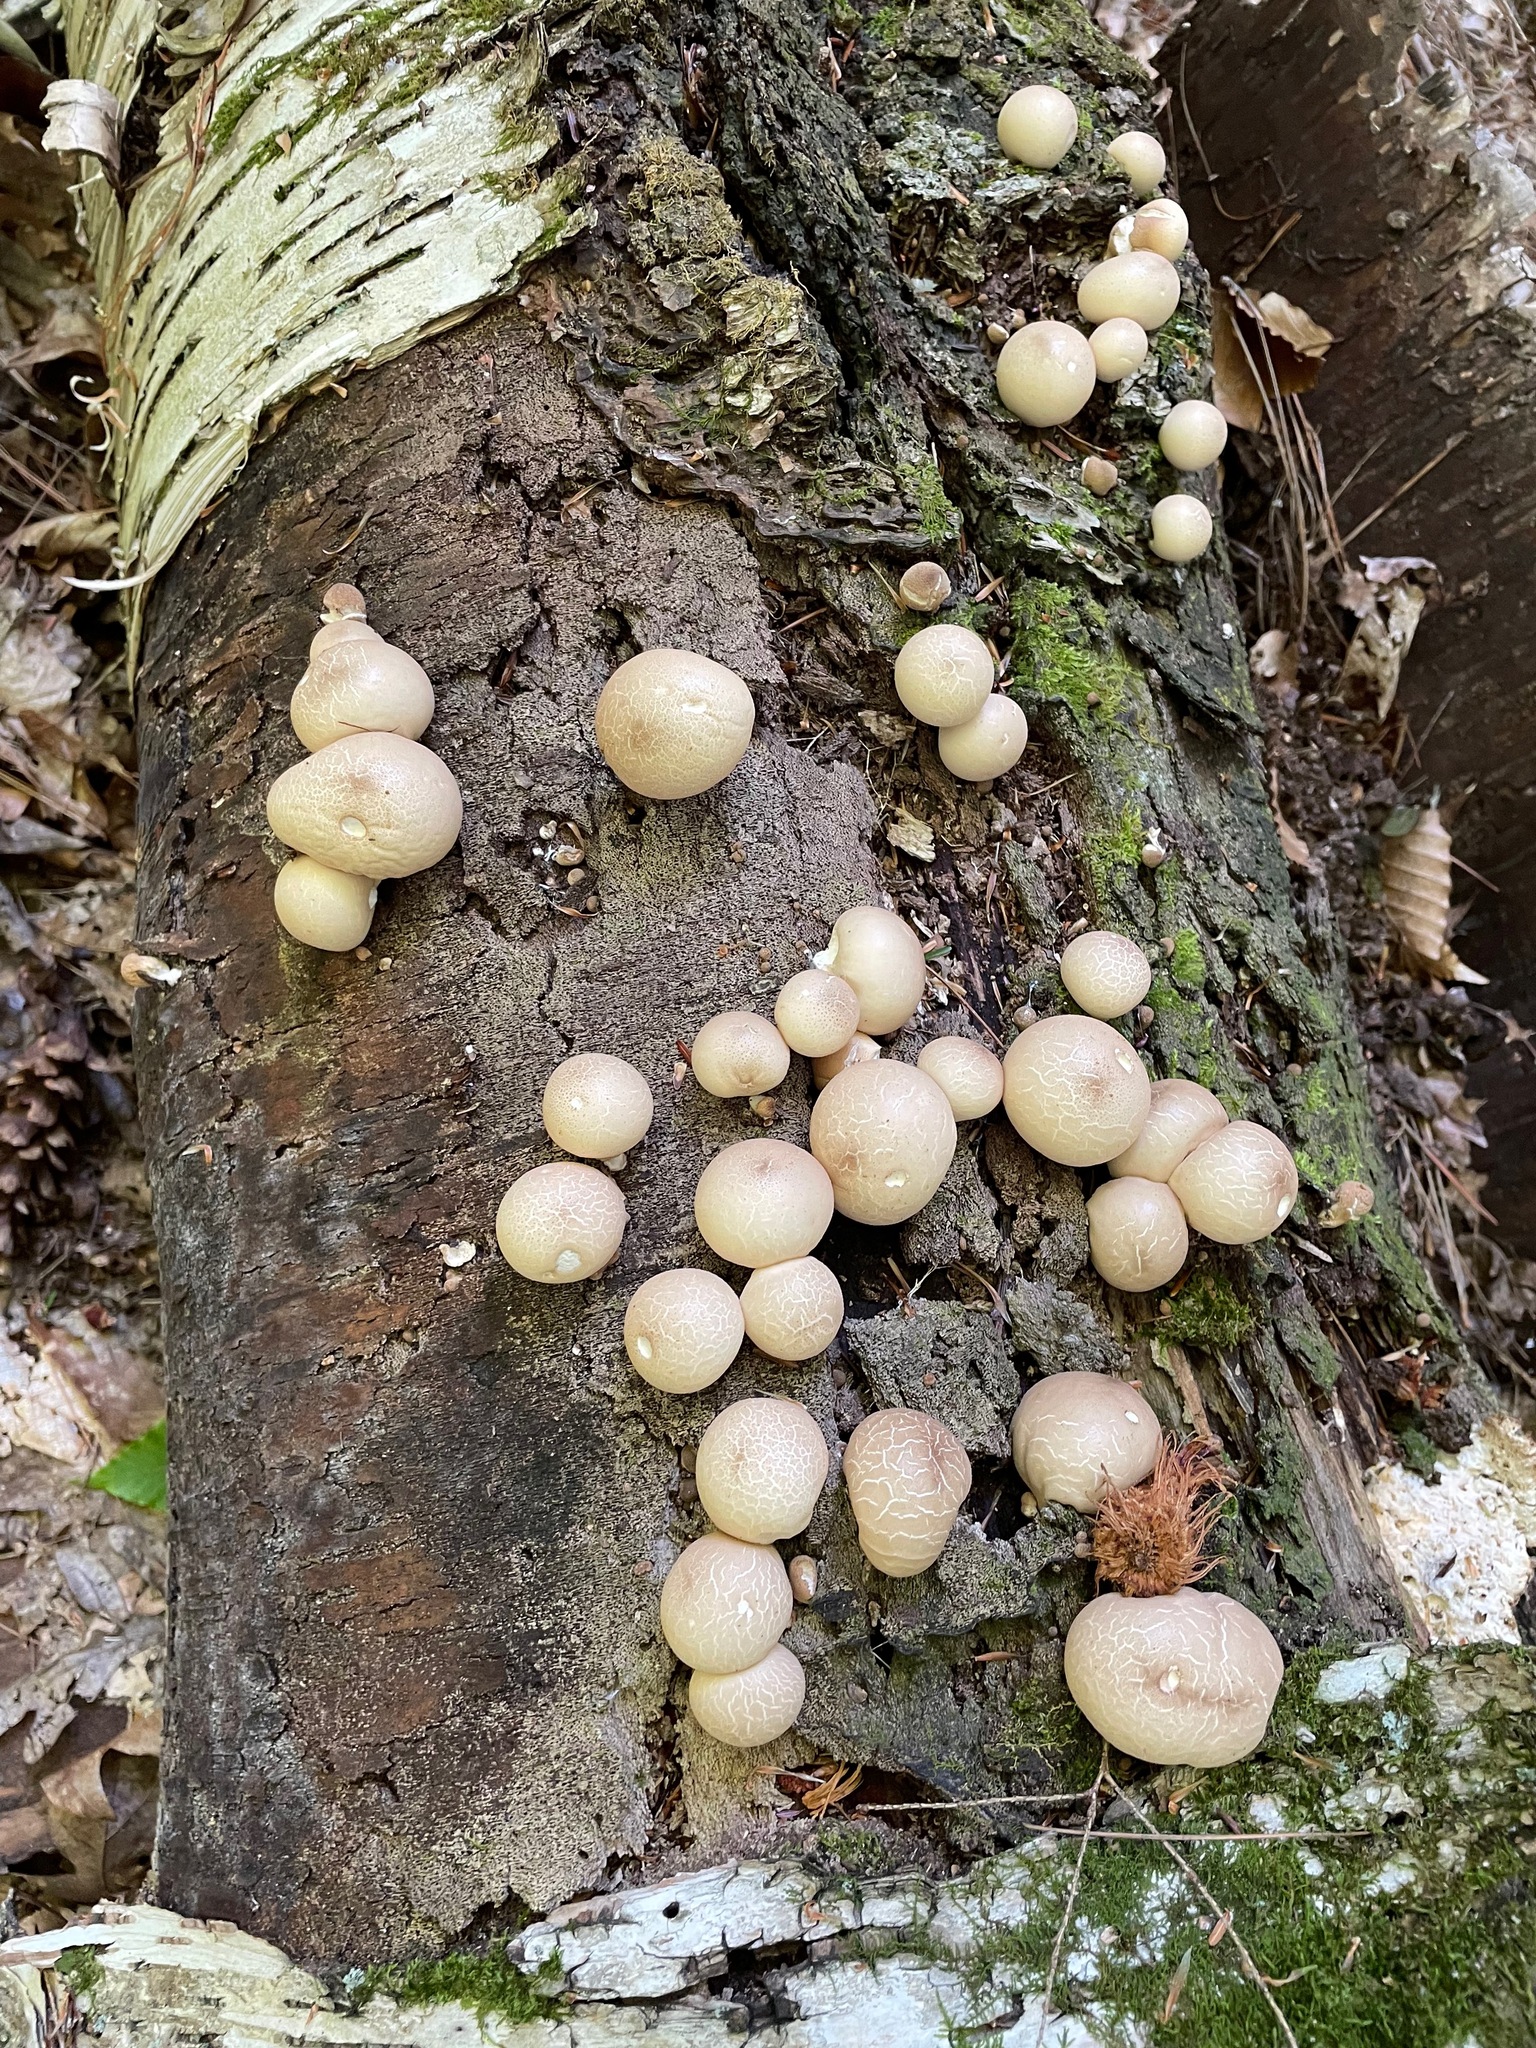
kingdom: Fungi
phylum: Basidiomycota
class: Agaricomycetes
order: Agaricales
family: Lycoperdaceae
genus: Apioperdon
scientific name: Apioperdon pyriforme
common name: Pear-shaped puffball
